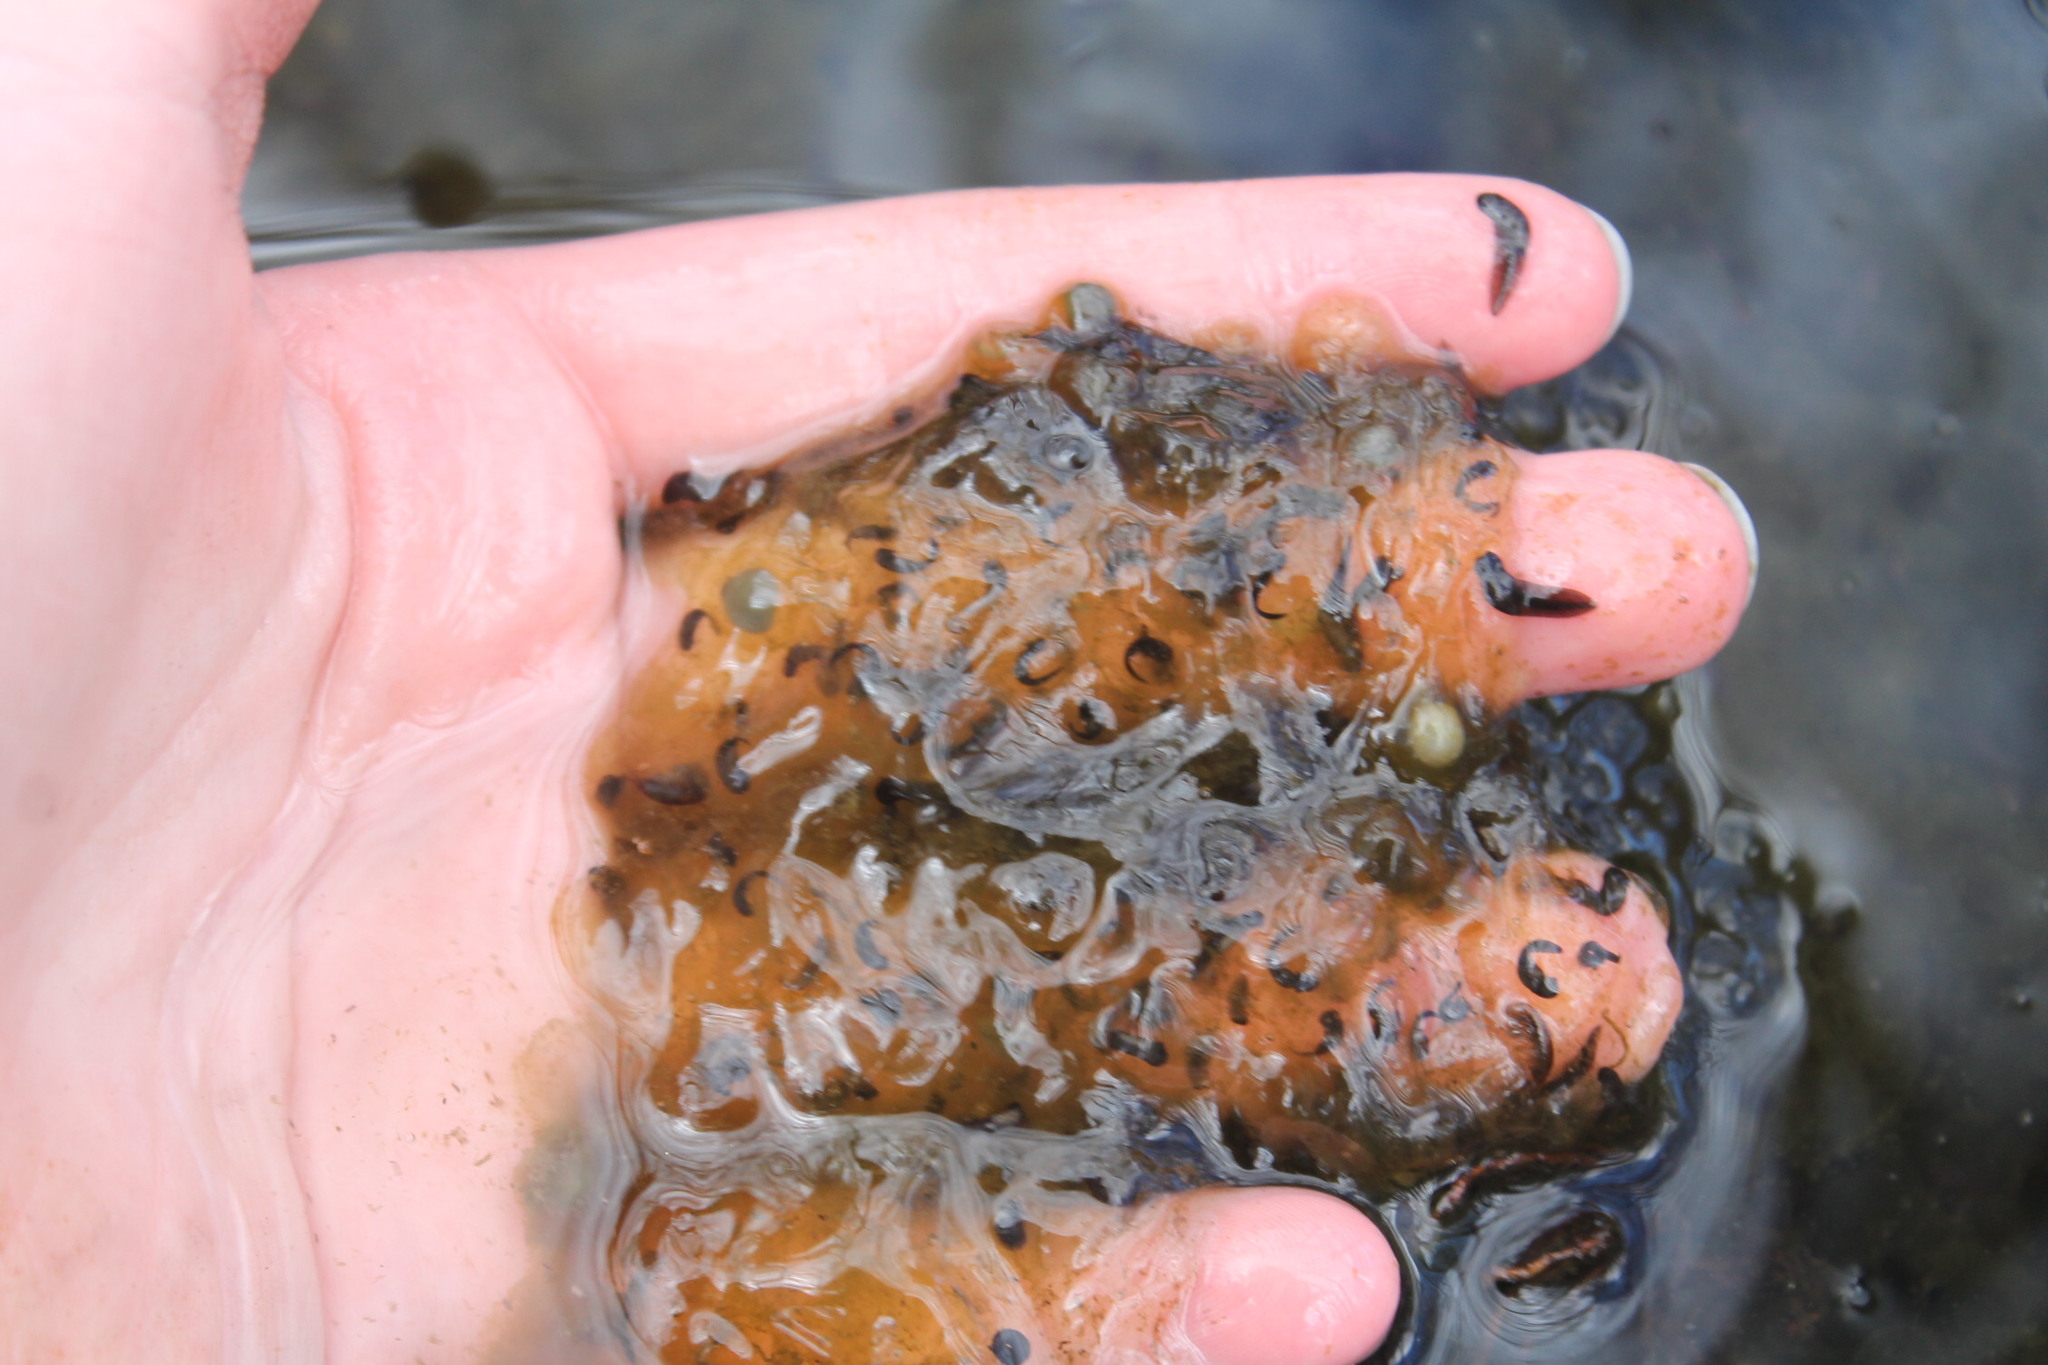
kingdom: Animalia
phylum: Chordata
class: Amphibia
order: Anura
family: Ranidae
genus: Lithobates
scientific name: Lithobates sylvaticus
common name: Wood frog
